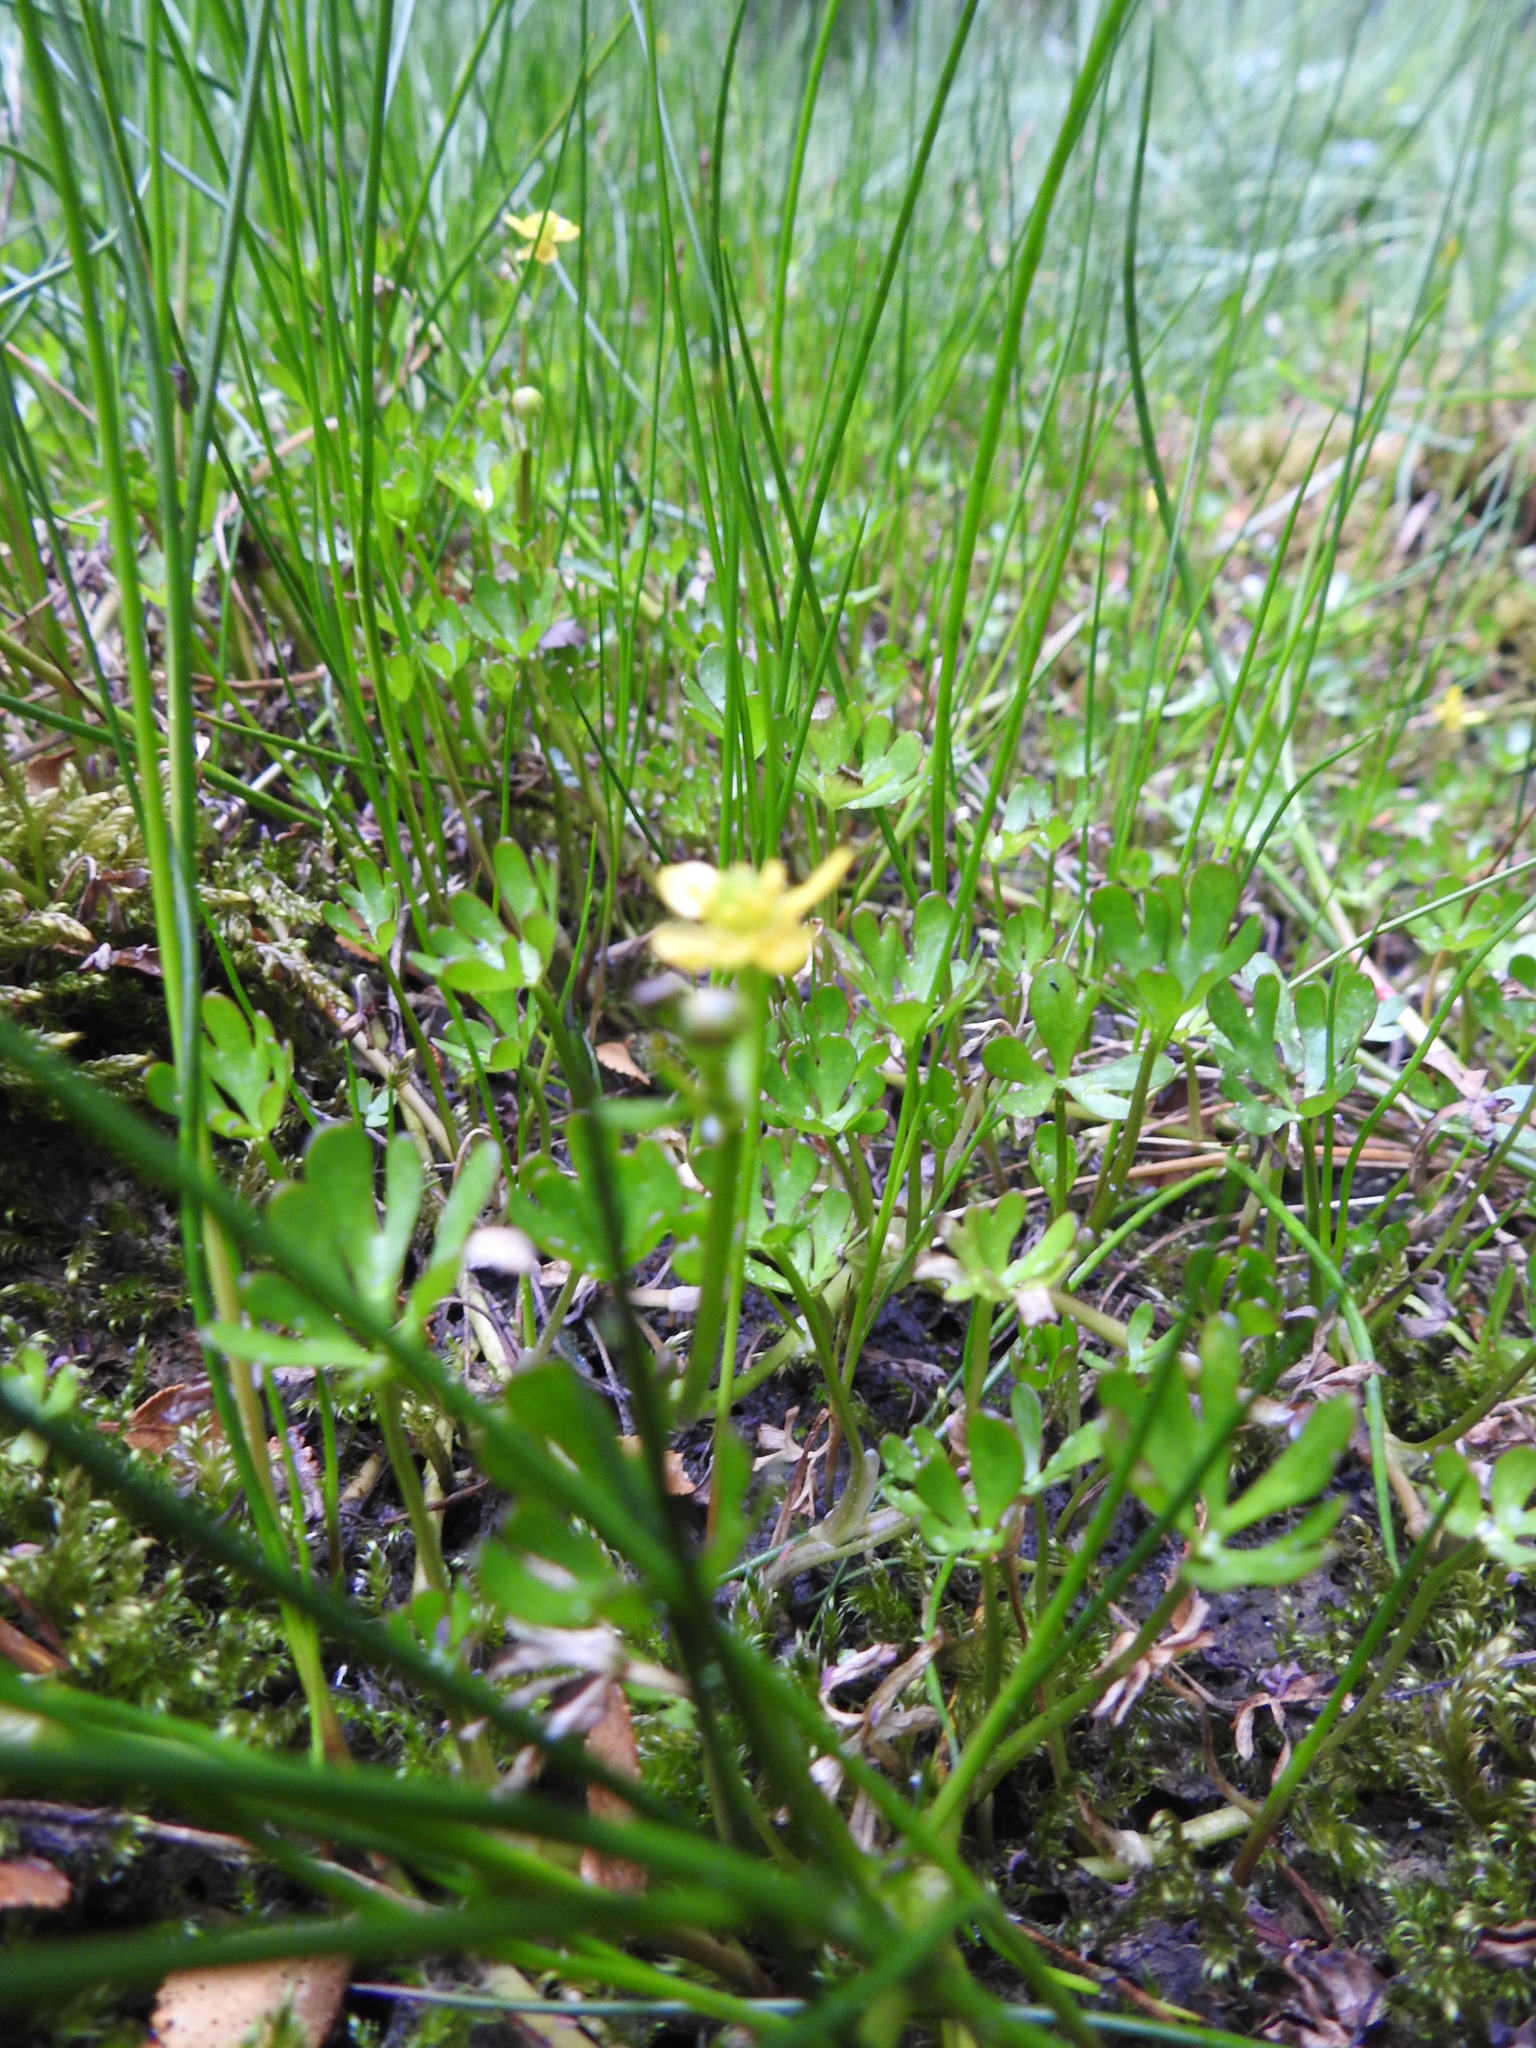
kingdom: Plantae
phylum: Tracheophyta
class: Magnoliopsida
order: Ranunculales
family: Ranunculaceae
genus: Ranunculus
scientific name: Ranunculus fuegianus
